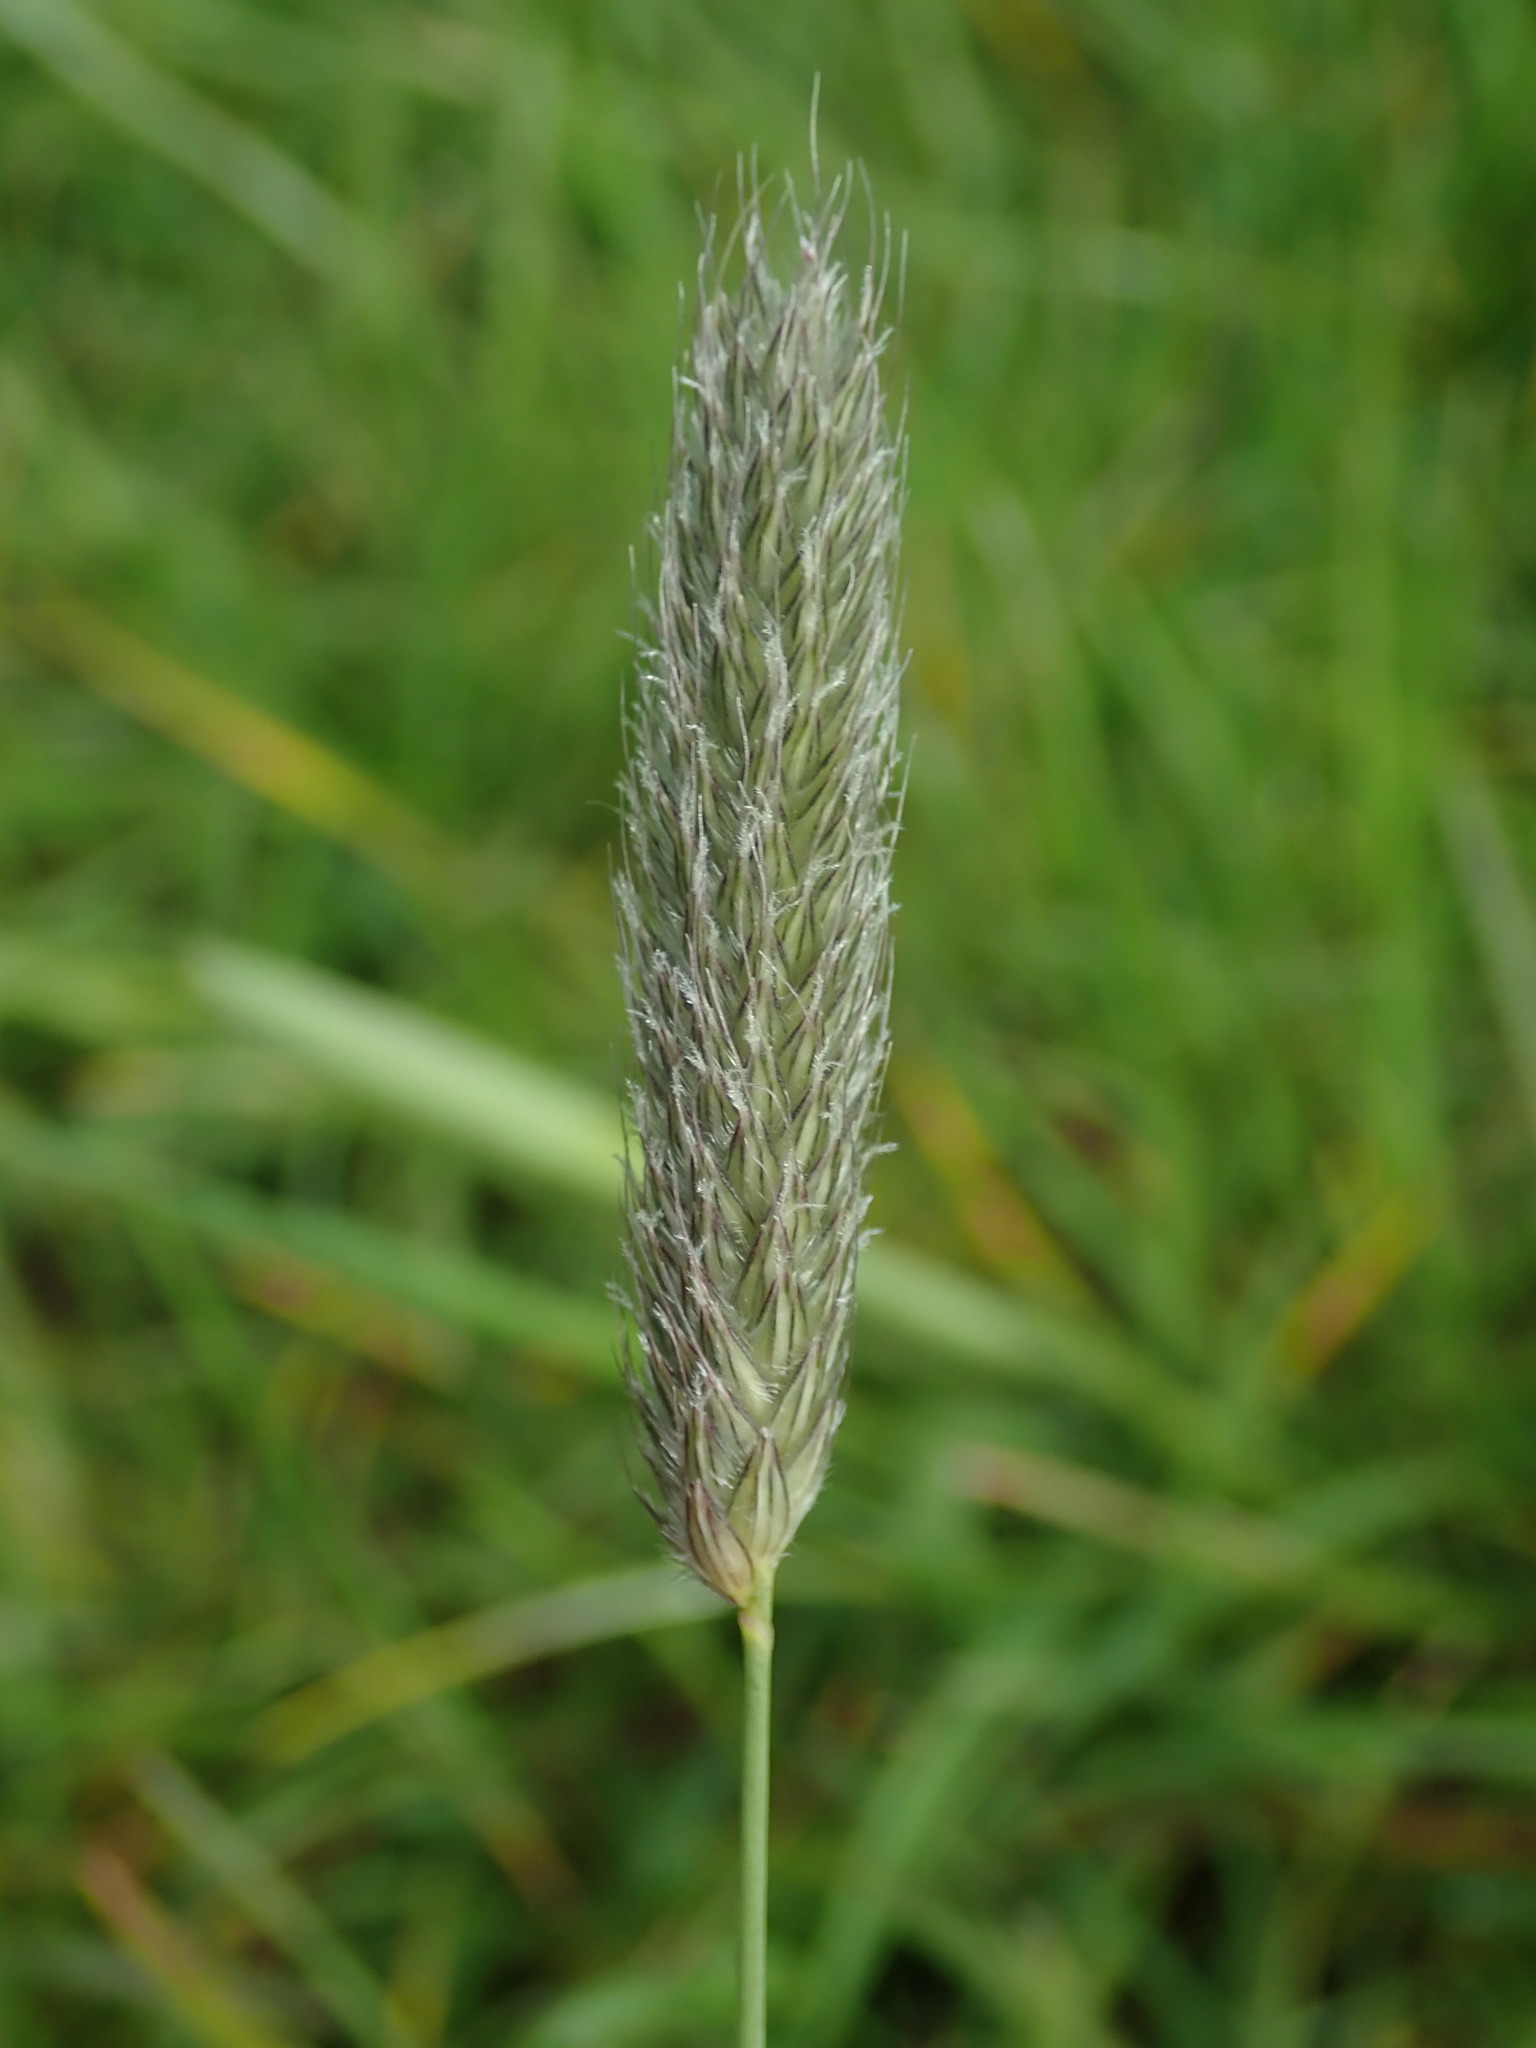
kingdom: Plantae
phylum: Tracheophyta
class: Liliopsida
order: Poales
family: Poaceae
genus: Alopecurus
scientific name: Alopecurus pratensis
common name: Meadow foxtail
